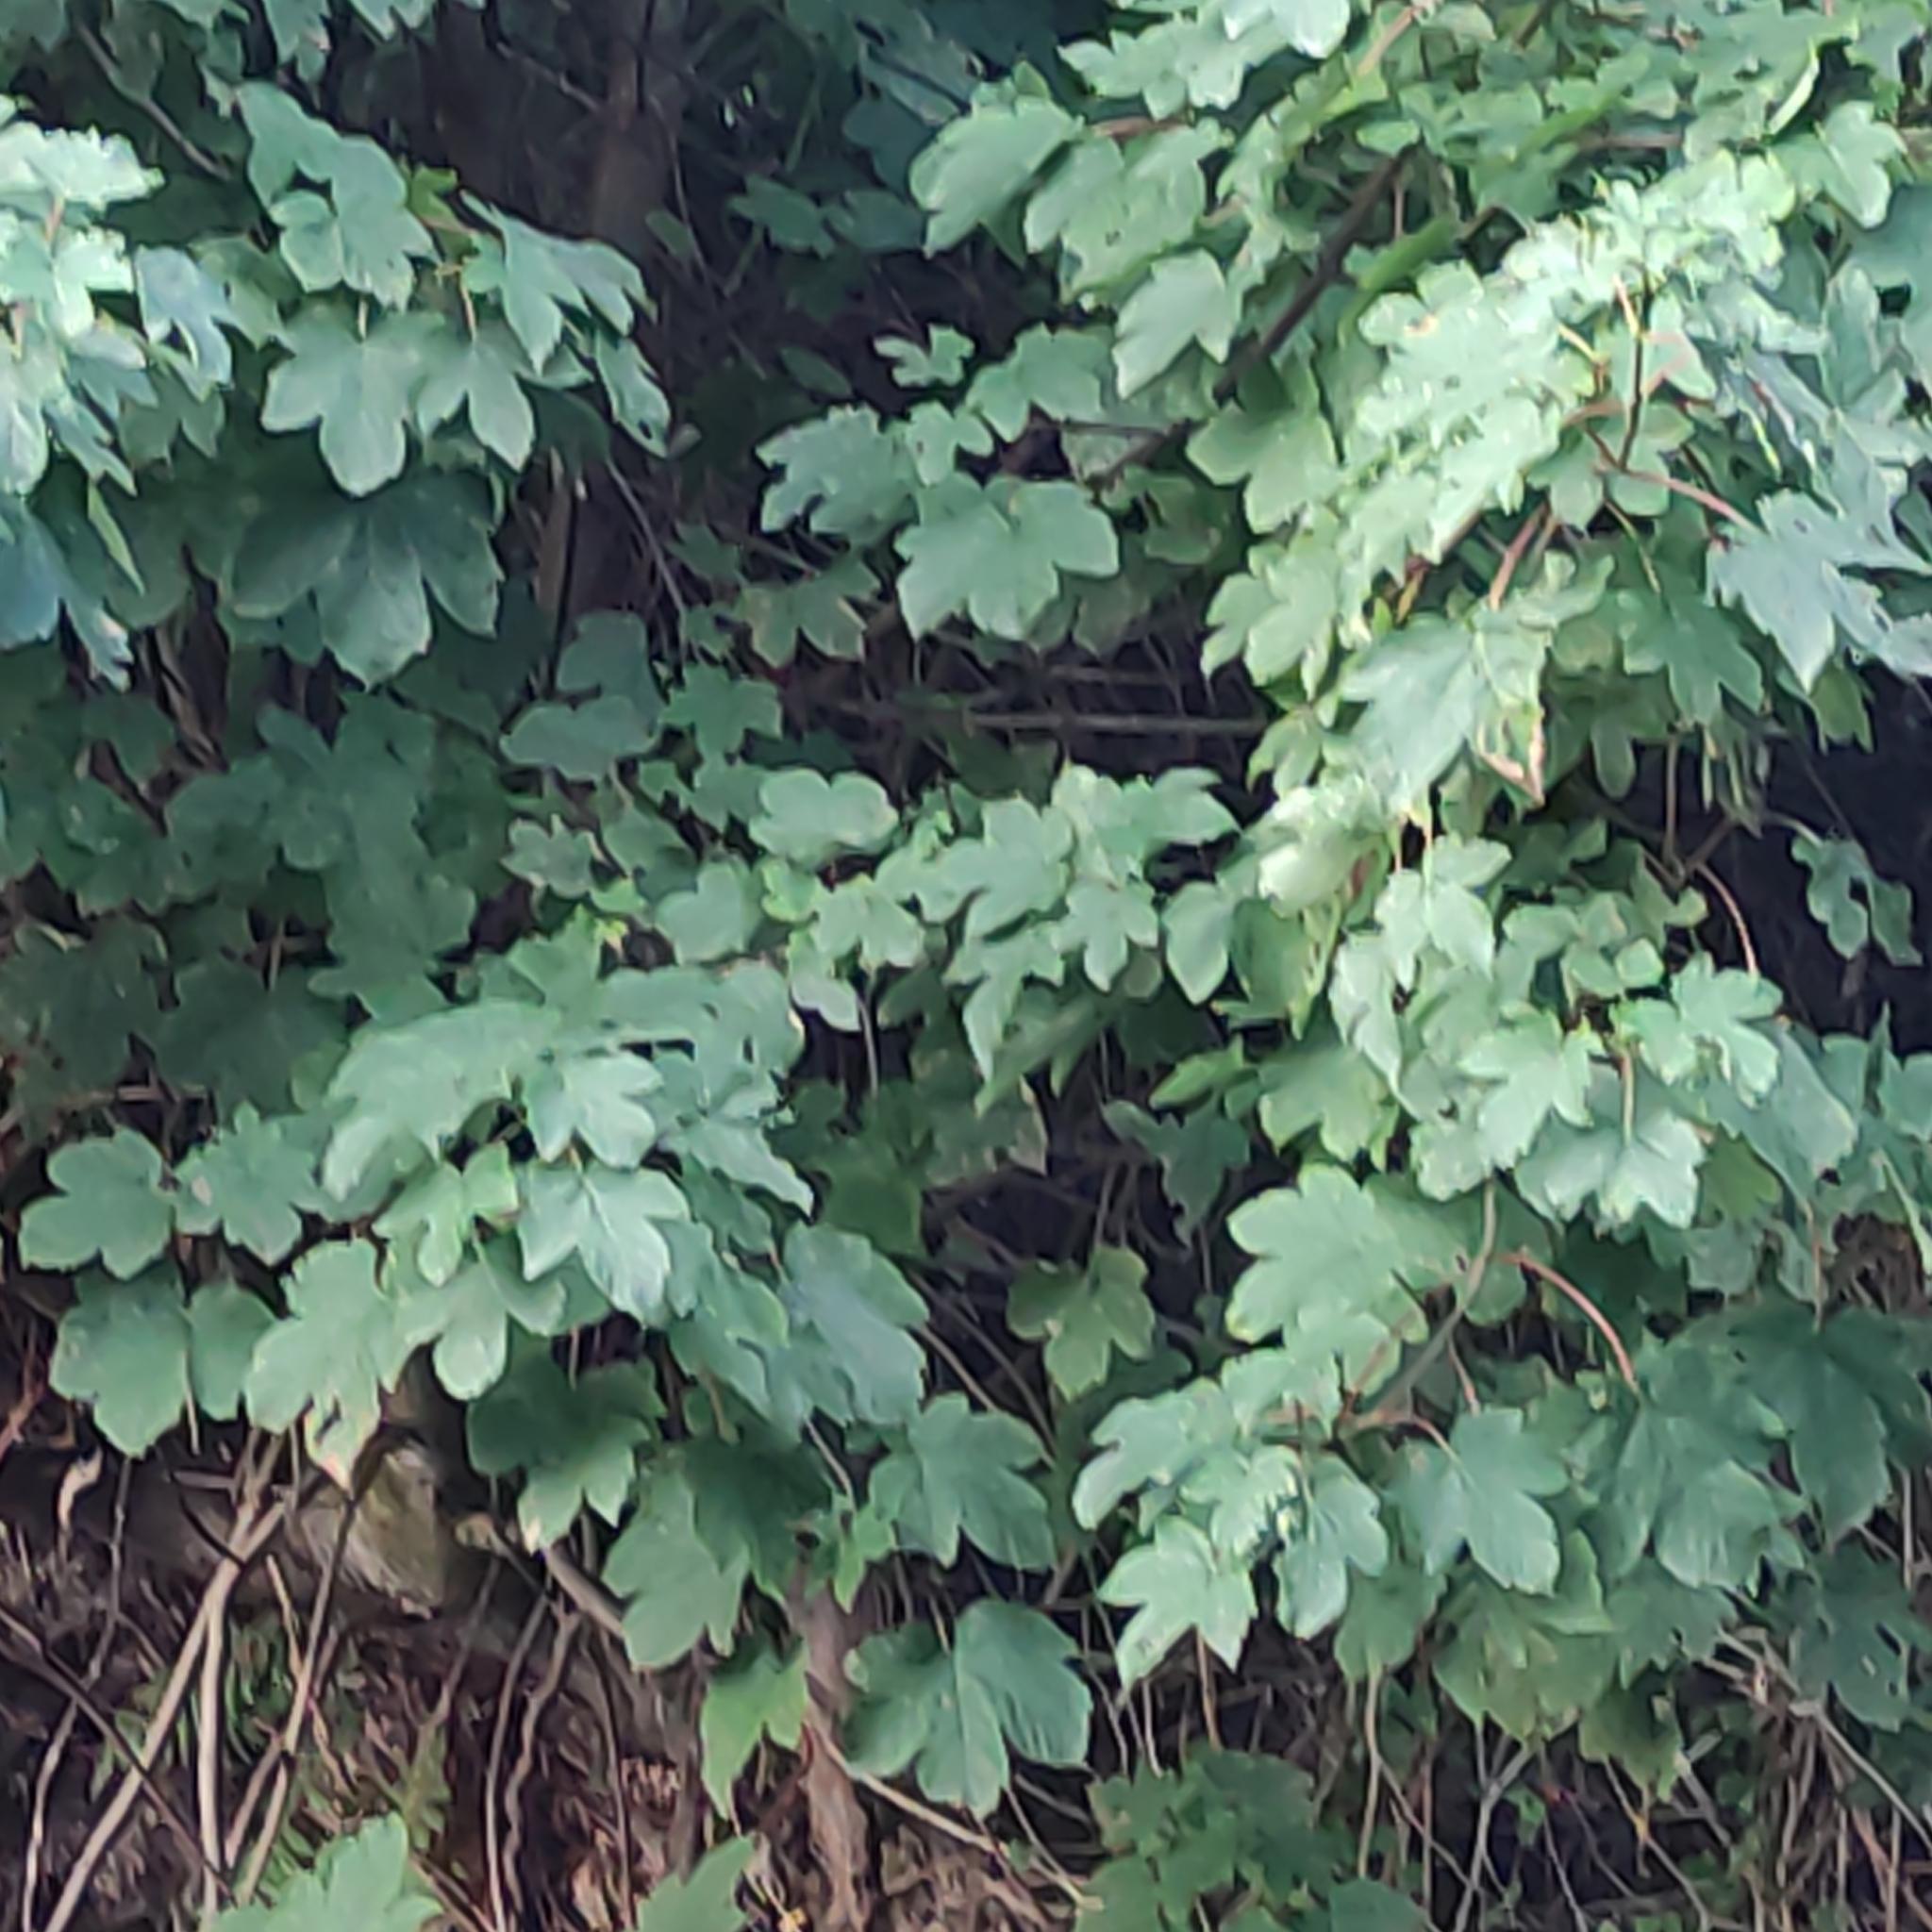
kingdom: Plantae
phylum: Tracheophyta
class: Magnoliopsida
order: Sapindales
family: Sapindaceae
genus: Acer
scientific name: Acer pseudoplatanus
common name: Sycamore
